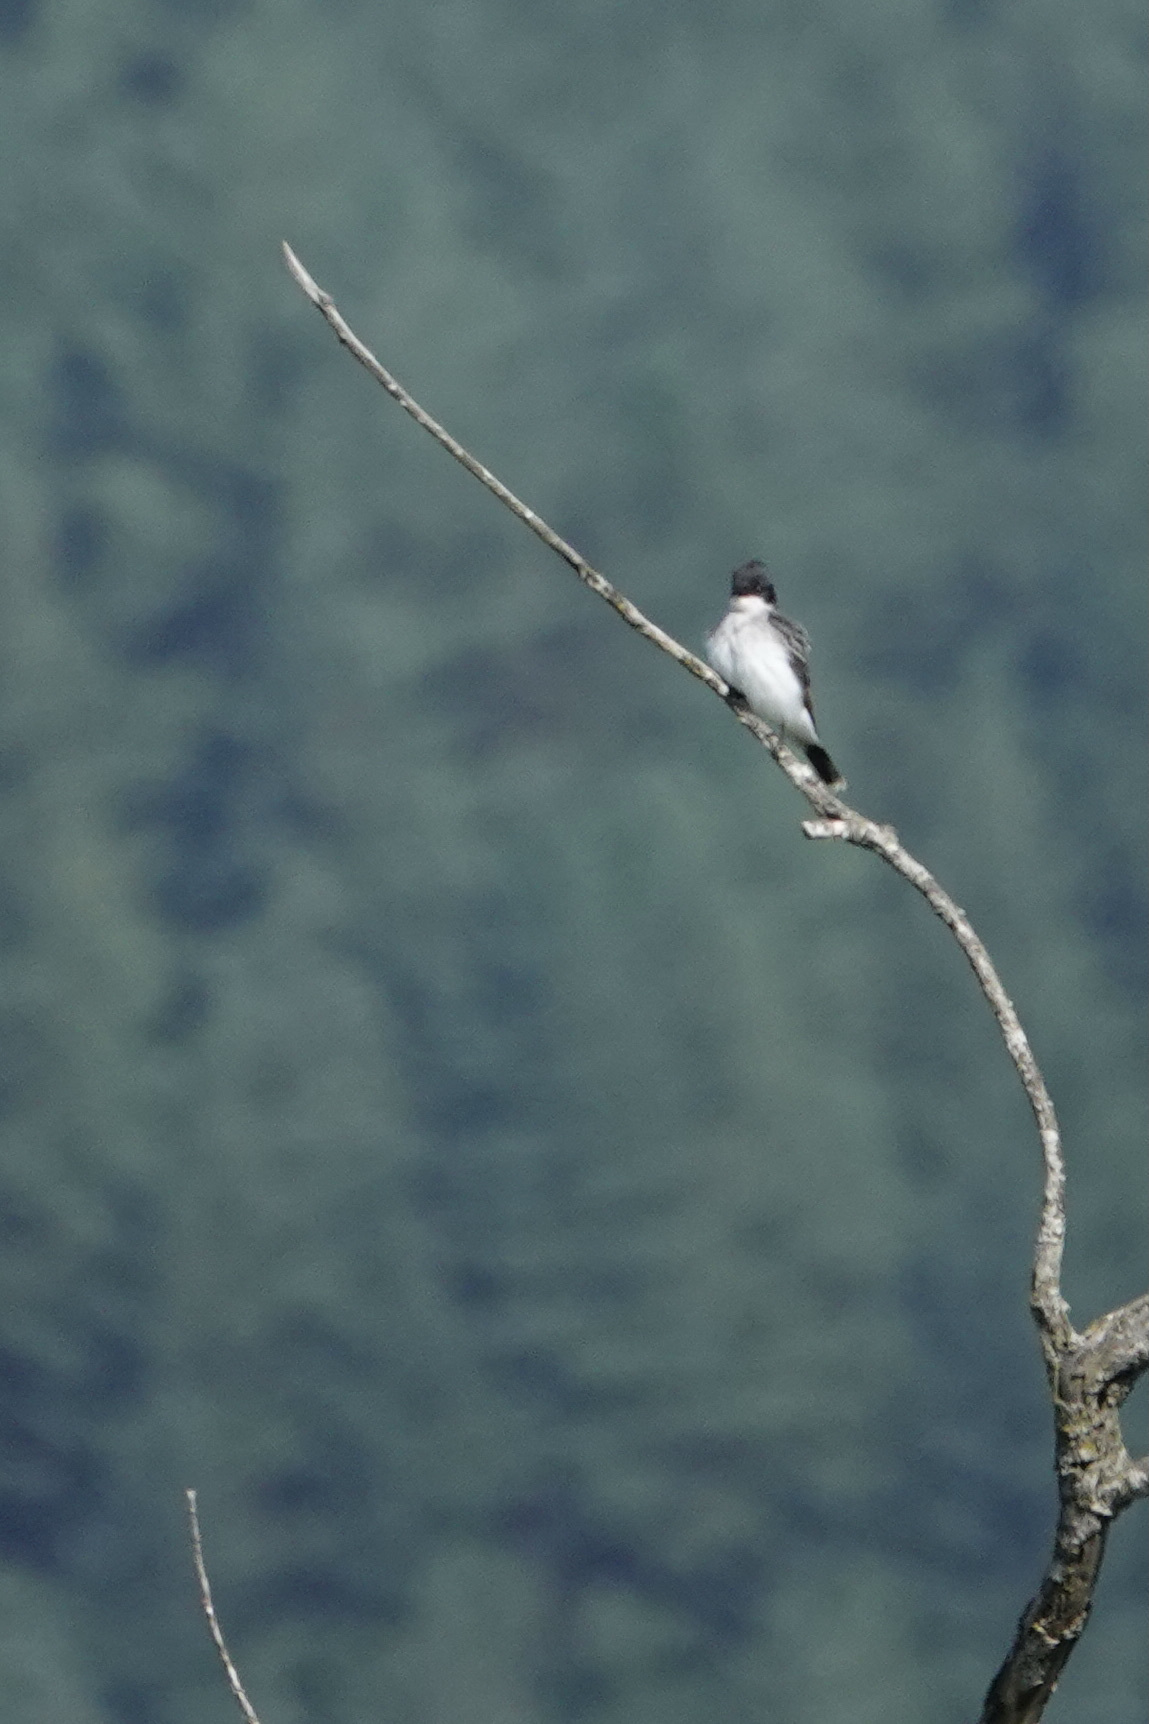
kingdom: Animalia
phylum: Chordata
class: Aves
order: Passeriformes
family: Tyrannidae
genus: Tyrannus
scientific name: Tyrannus tyrannus
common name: Eastern kingbird
